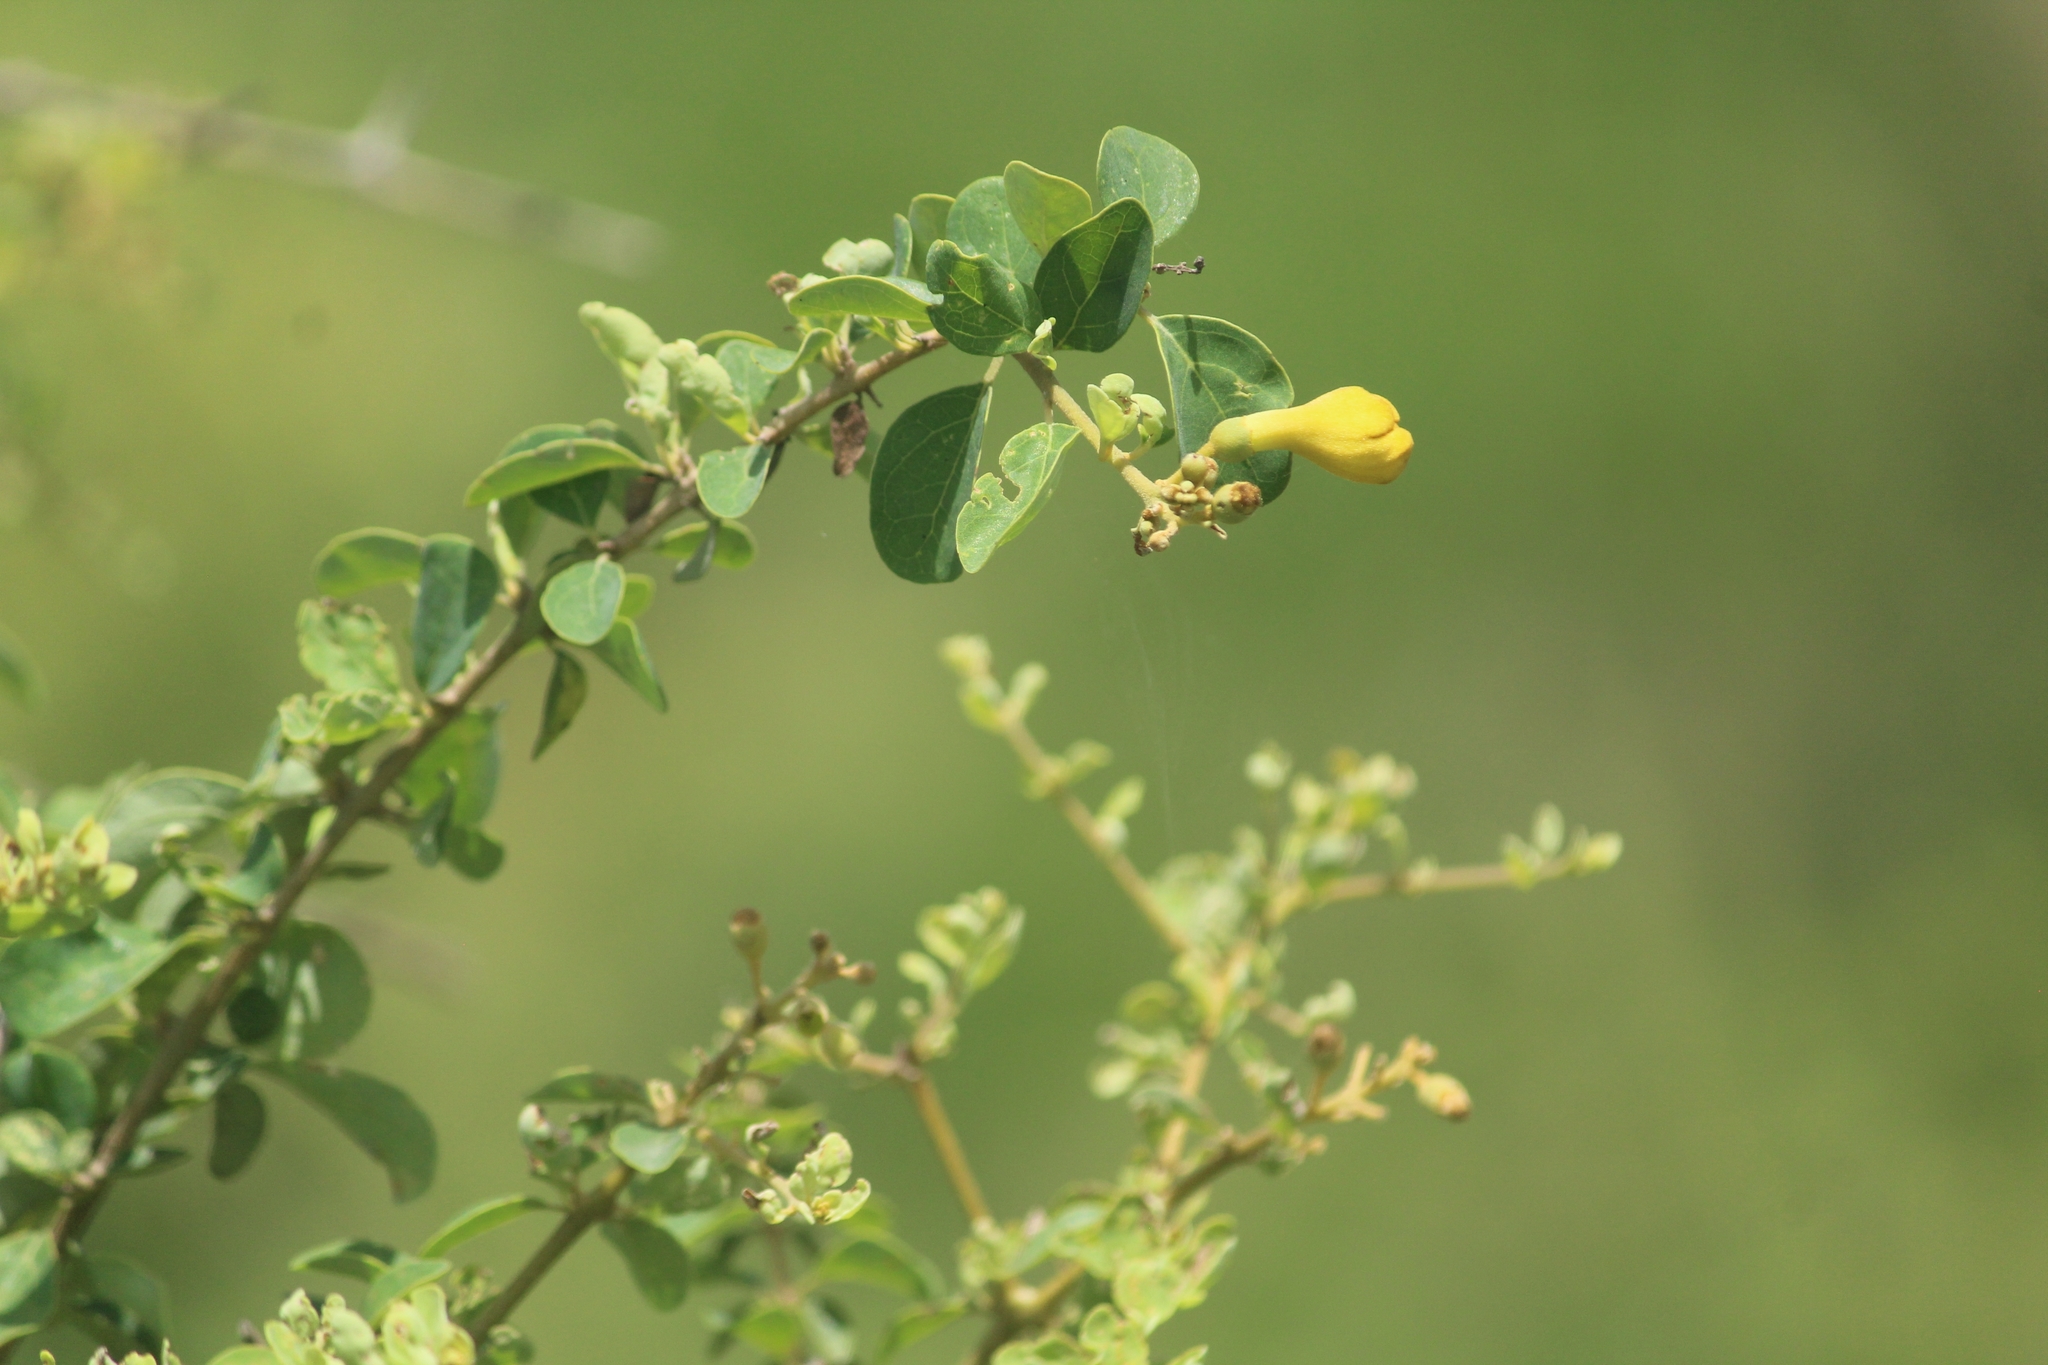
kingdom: Plantae
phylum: Tracheophyta
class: Magnoliopsida
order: Lamiales
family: Lamiaceae
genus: Gmelina
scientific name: Gmelina asiatica
